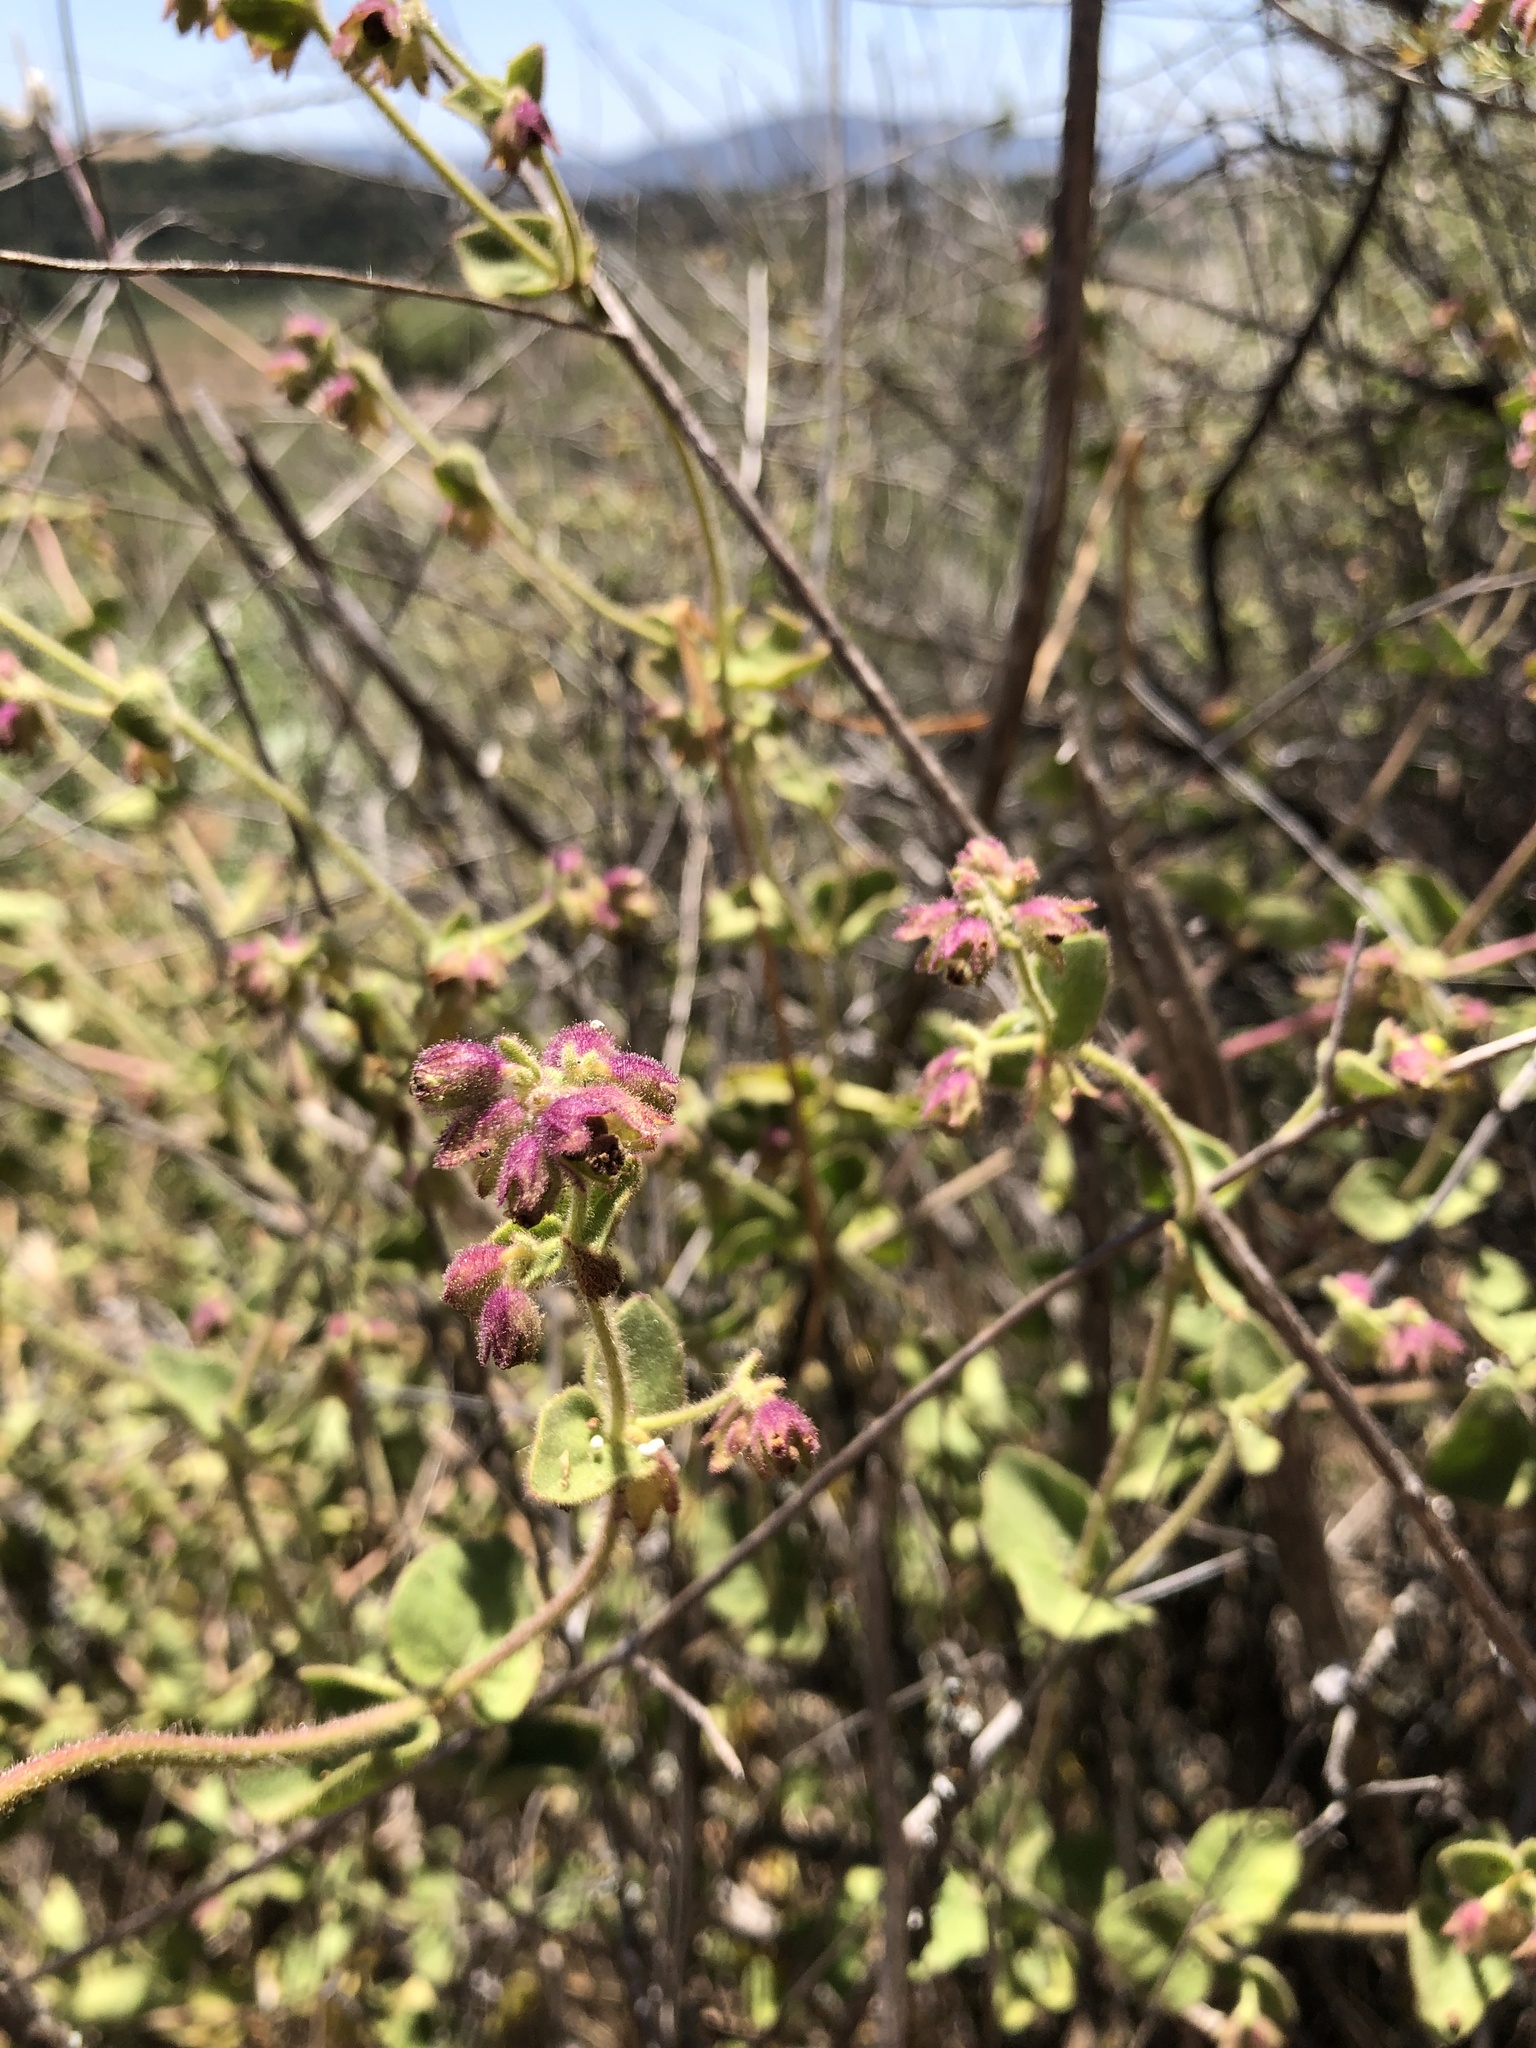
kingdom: Plantae
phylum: Tracheophyta
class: Magnoliopsida
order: Caryophyllales
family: Nyctaginaceae
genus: Mirabilis
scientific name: Mirabilis laevis
